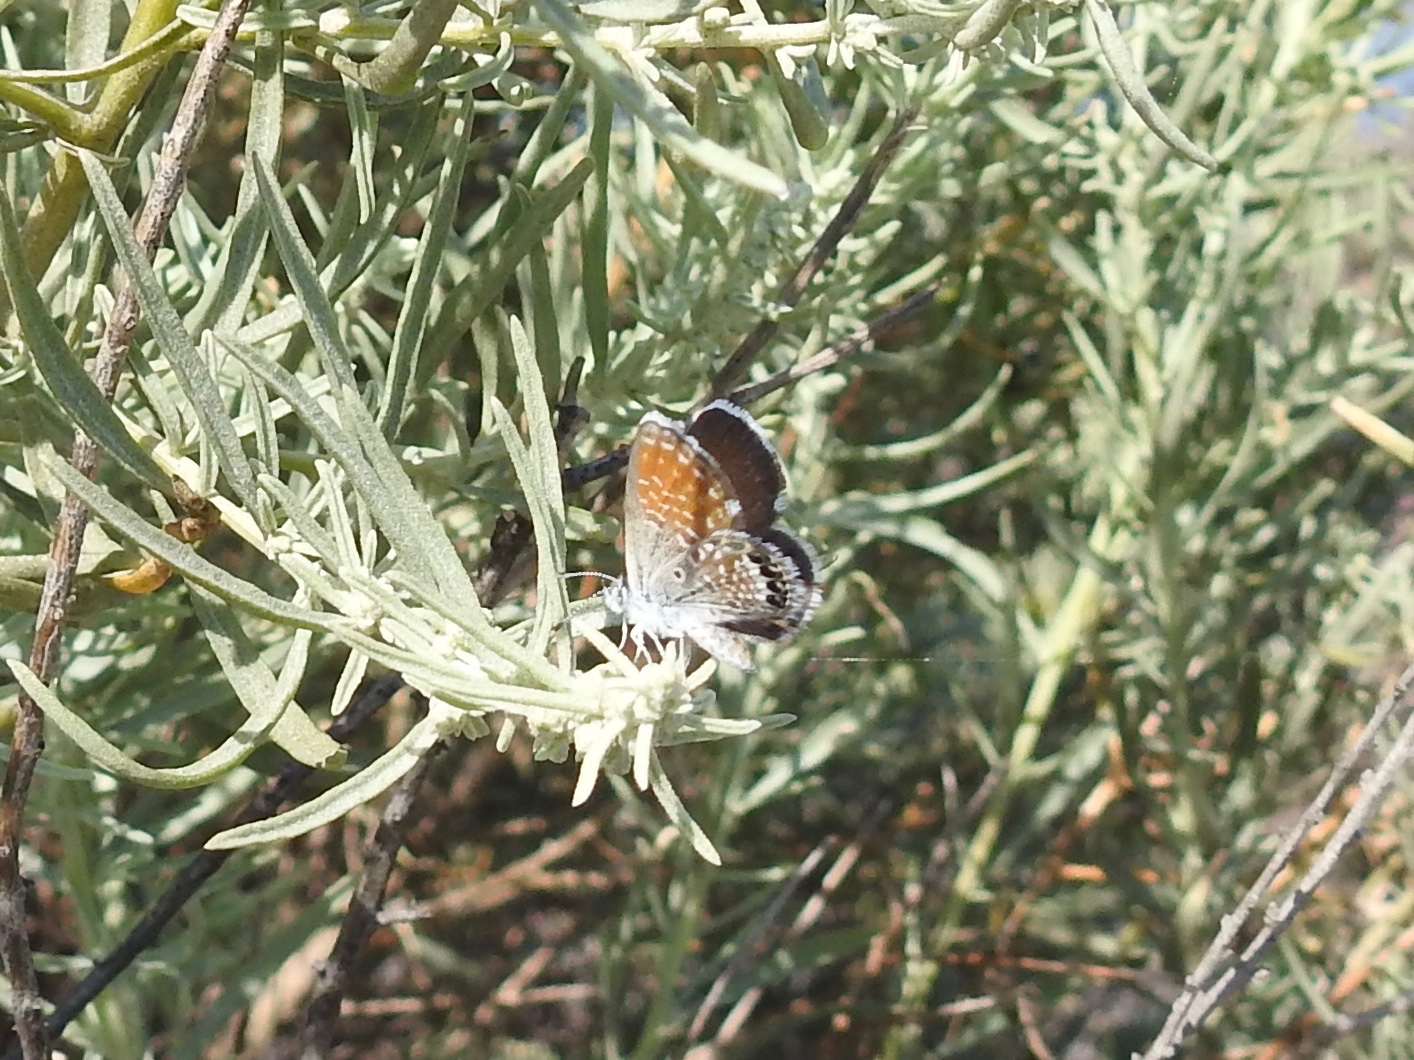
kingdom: Animalia
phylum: Arthropoda
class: Insecta
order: Lepidoptera
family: Lycaenidae
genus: Brephidium
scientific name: Brephidium exilis
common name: Pygmy blue
